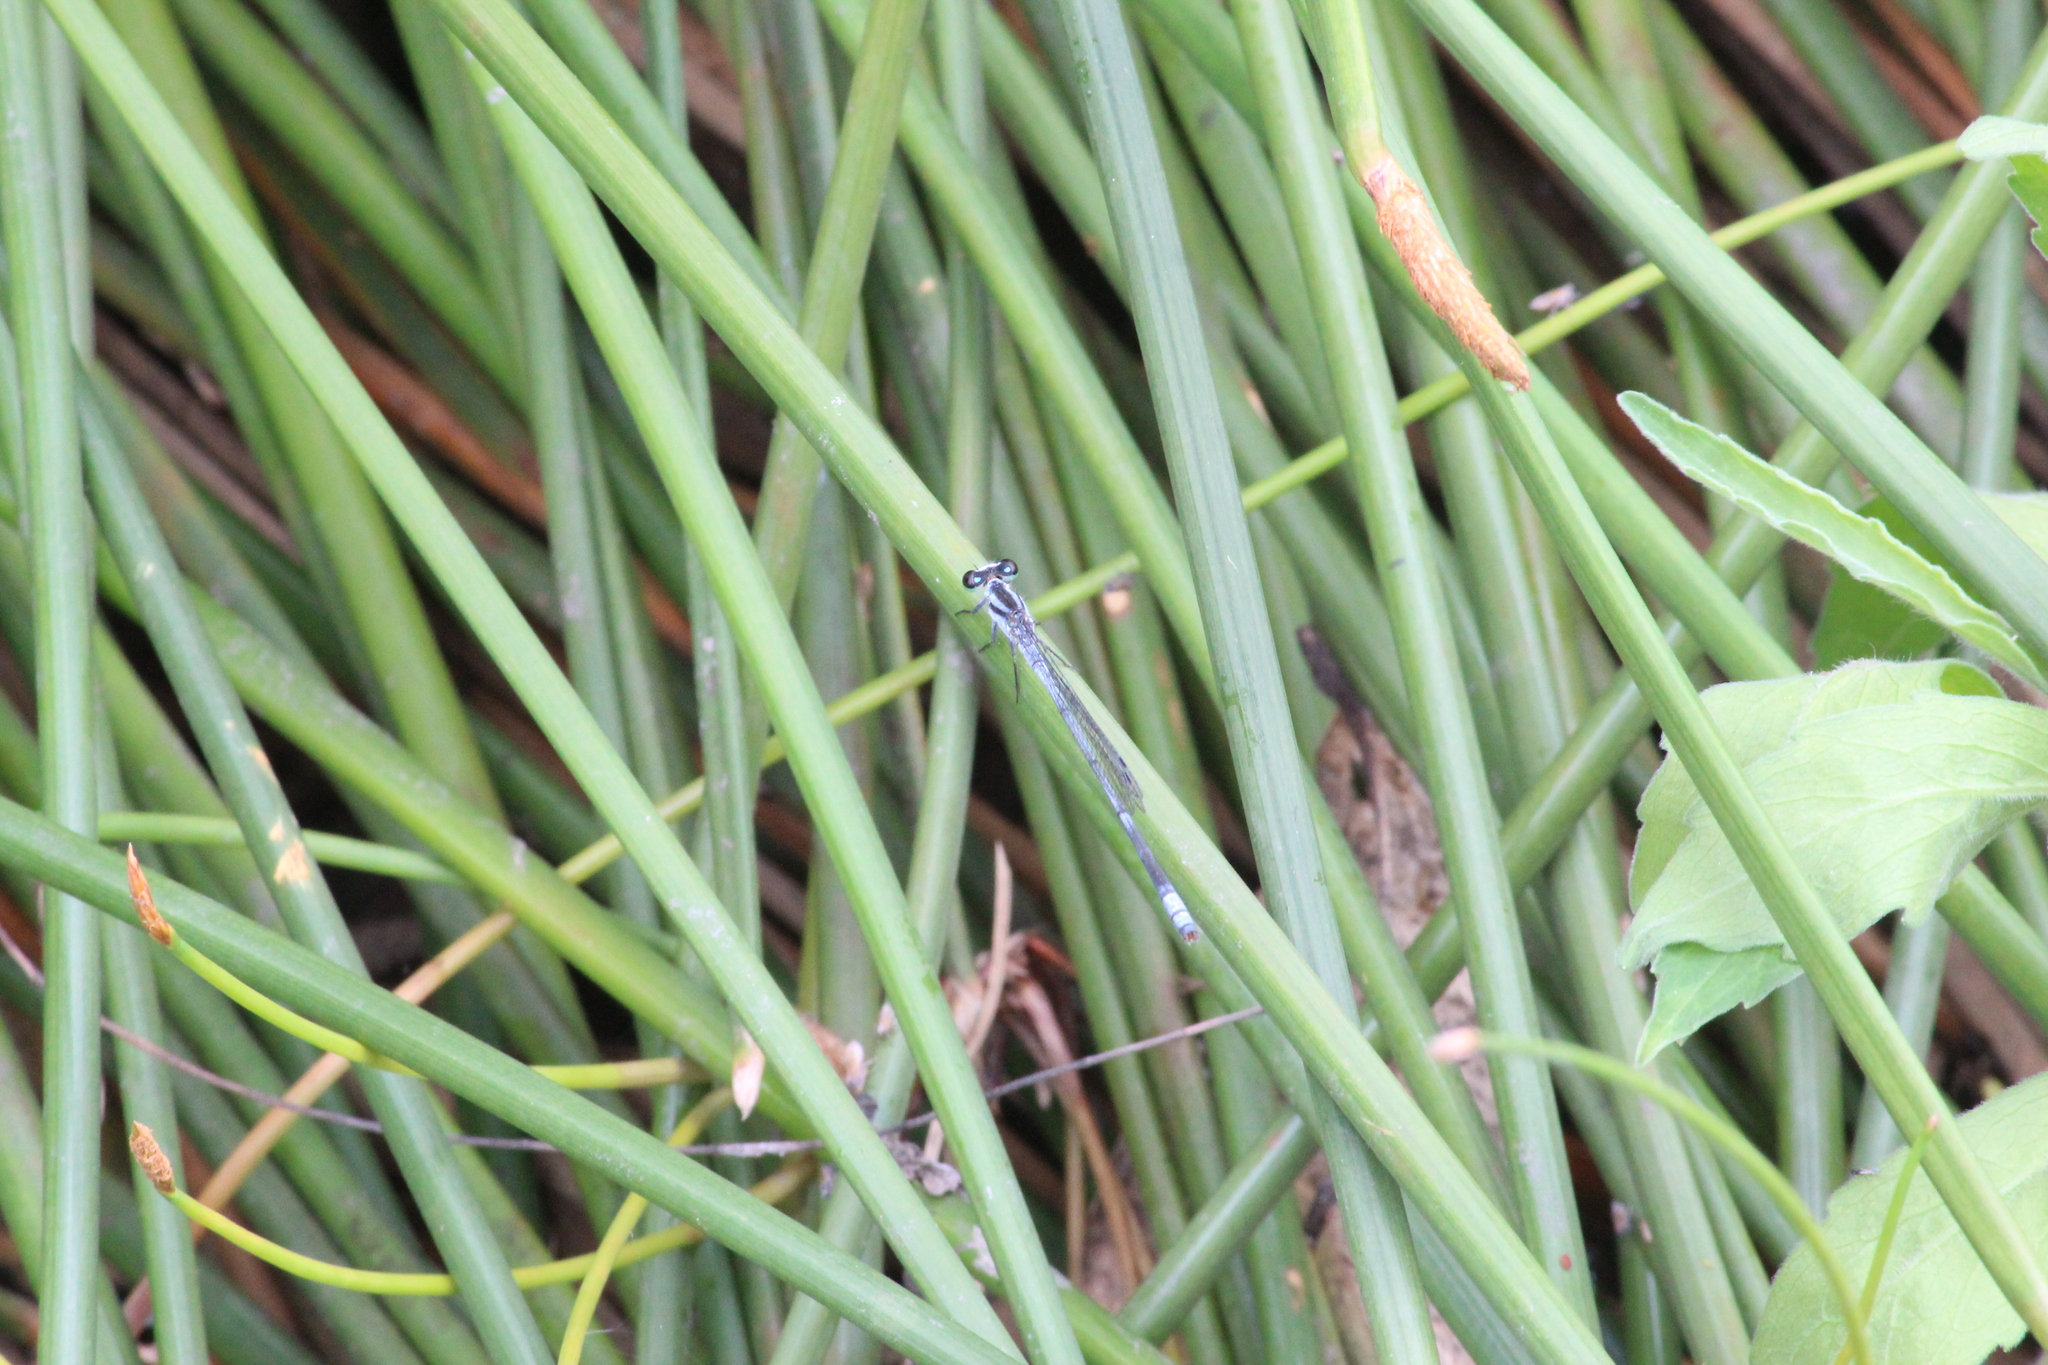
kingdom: Animalia
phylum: Arthropoda
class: Insecta
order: Odonata
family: Coenagrionidae
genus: Pseudagrion
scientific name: Pseudagrion kersteni
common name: Powder-faced sprite
